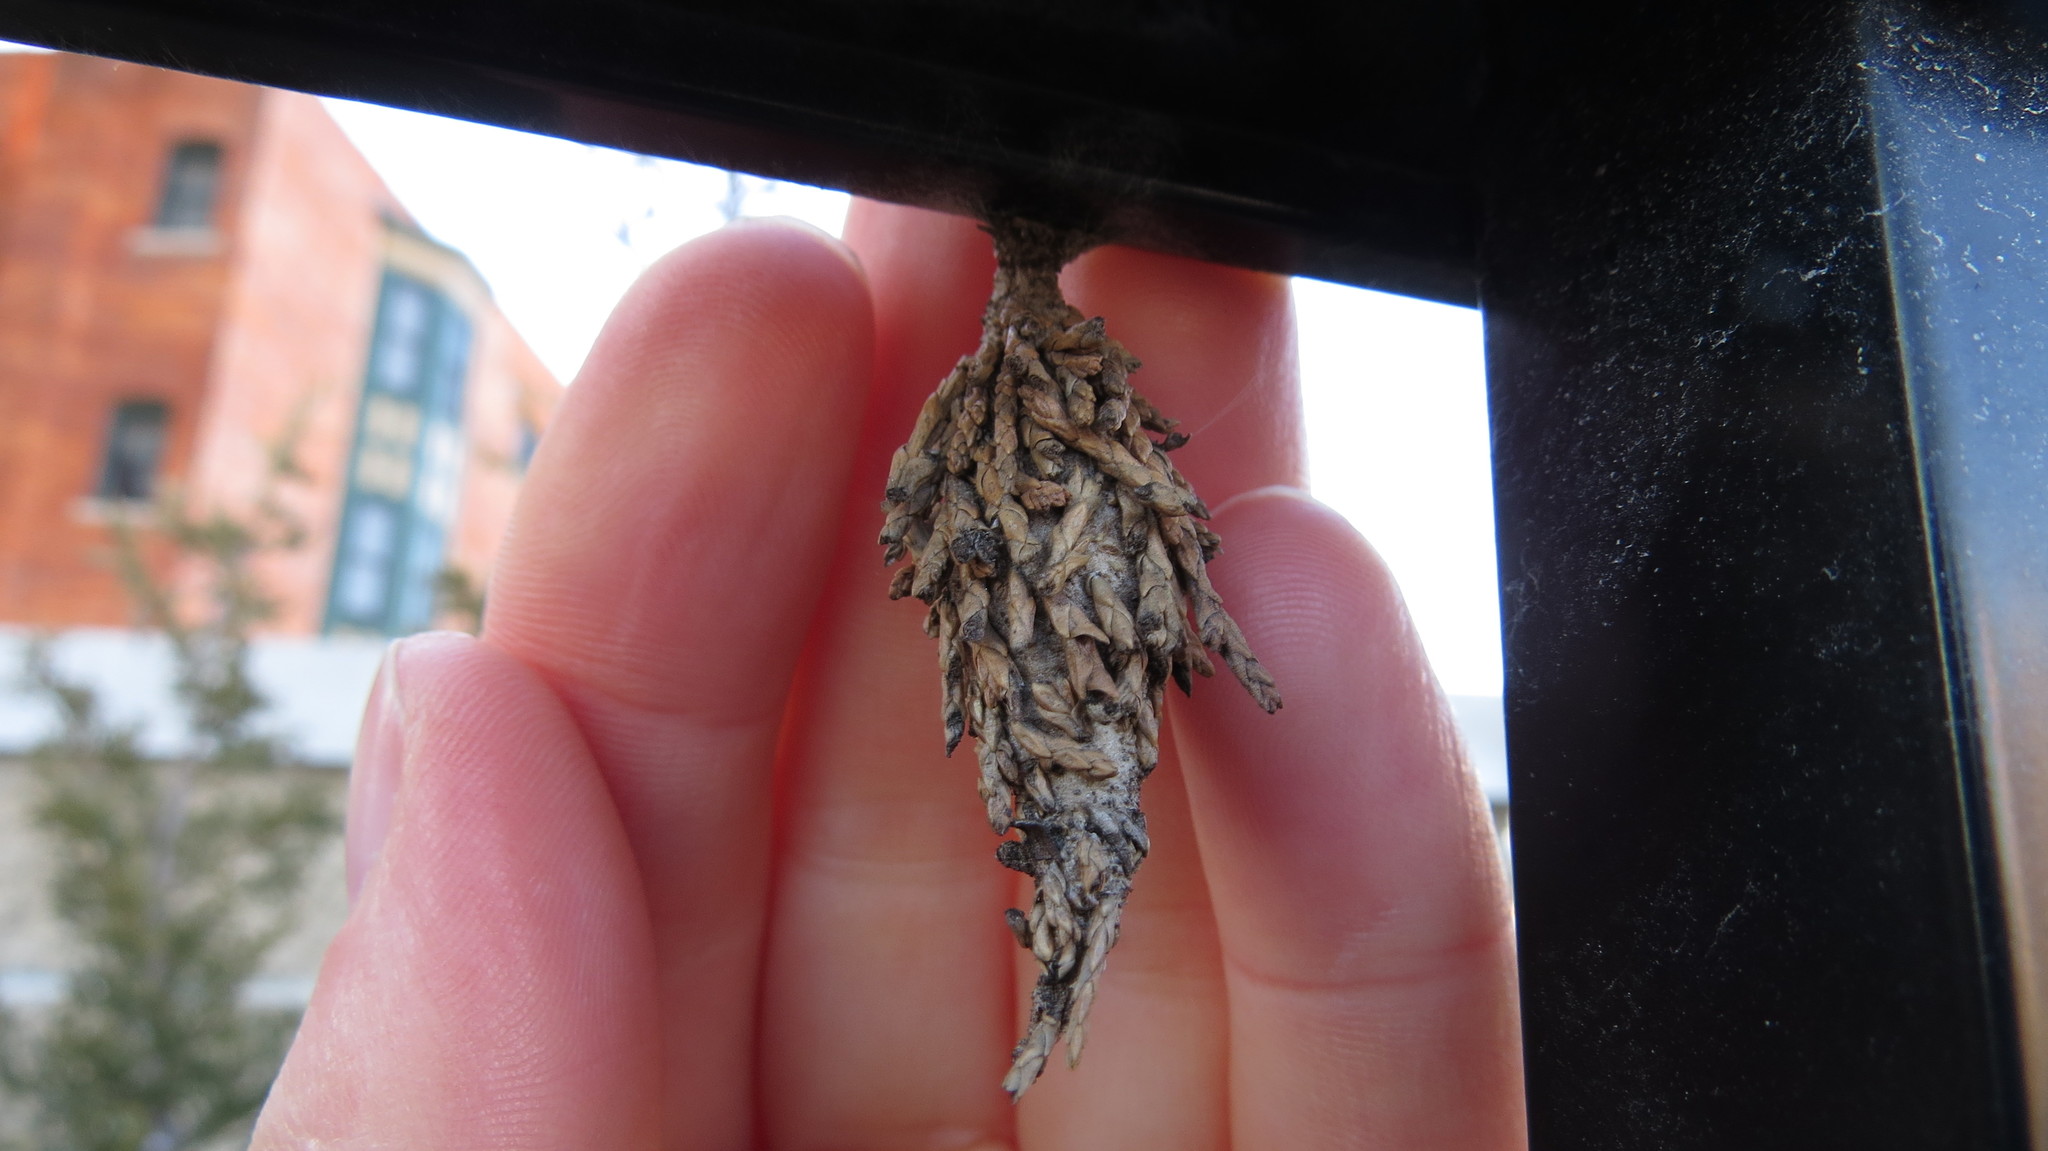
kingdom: Animalia
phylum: Arthropoda
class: Insecta
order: Lepidoptera
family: Psychidae
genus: Thyridopteryx
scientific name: Thyridopteryx ephemeraeformis
